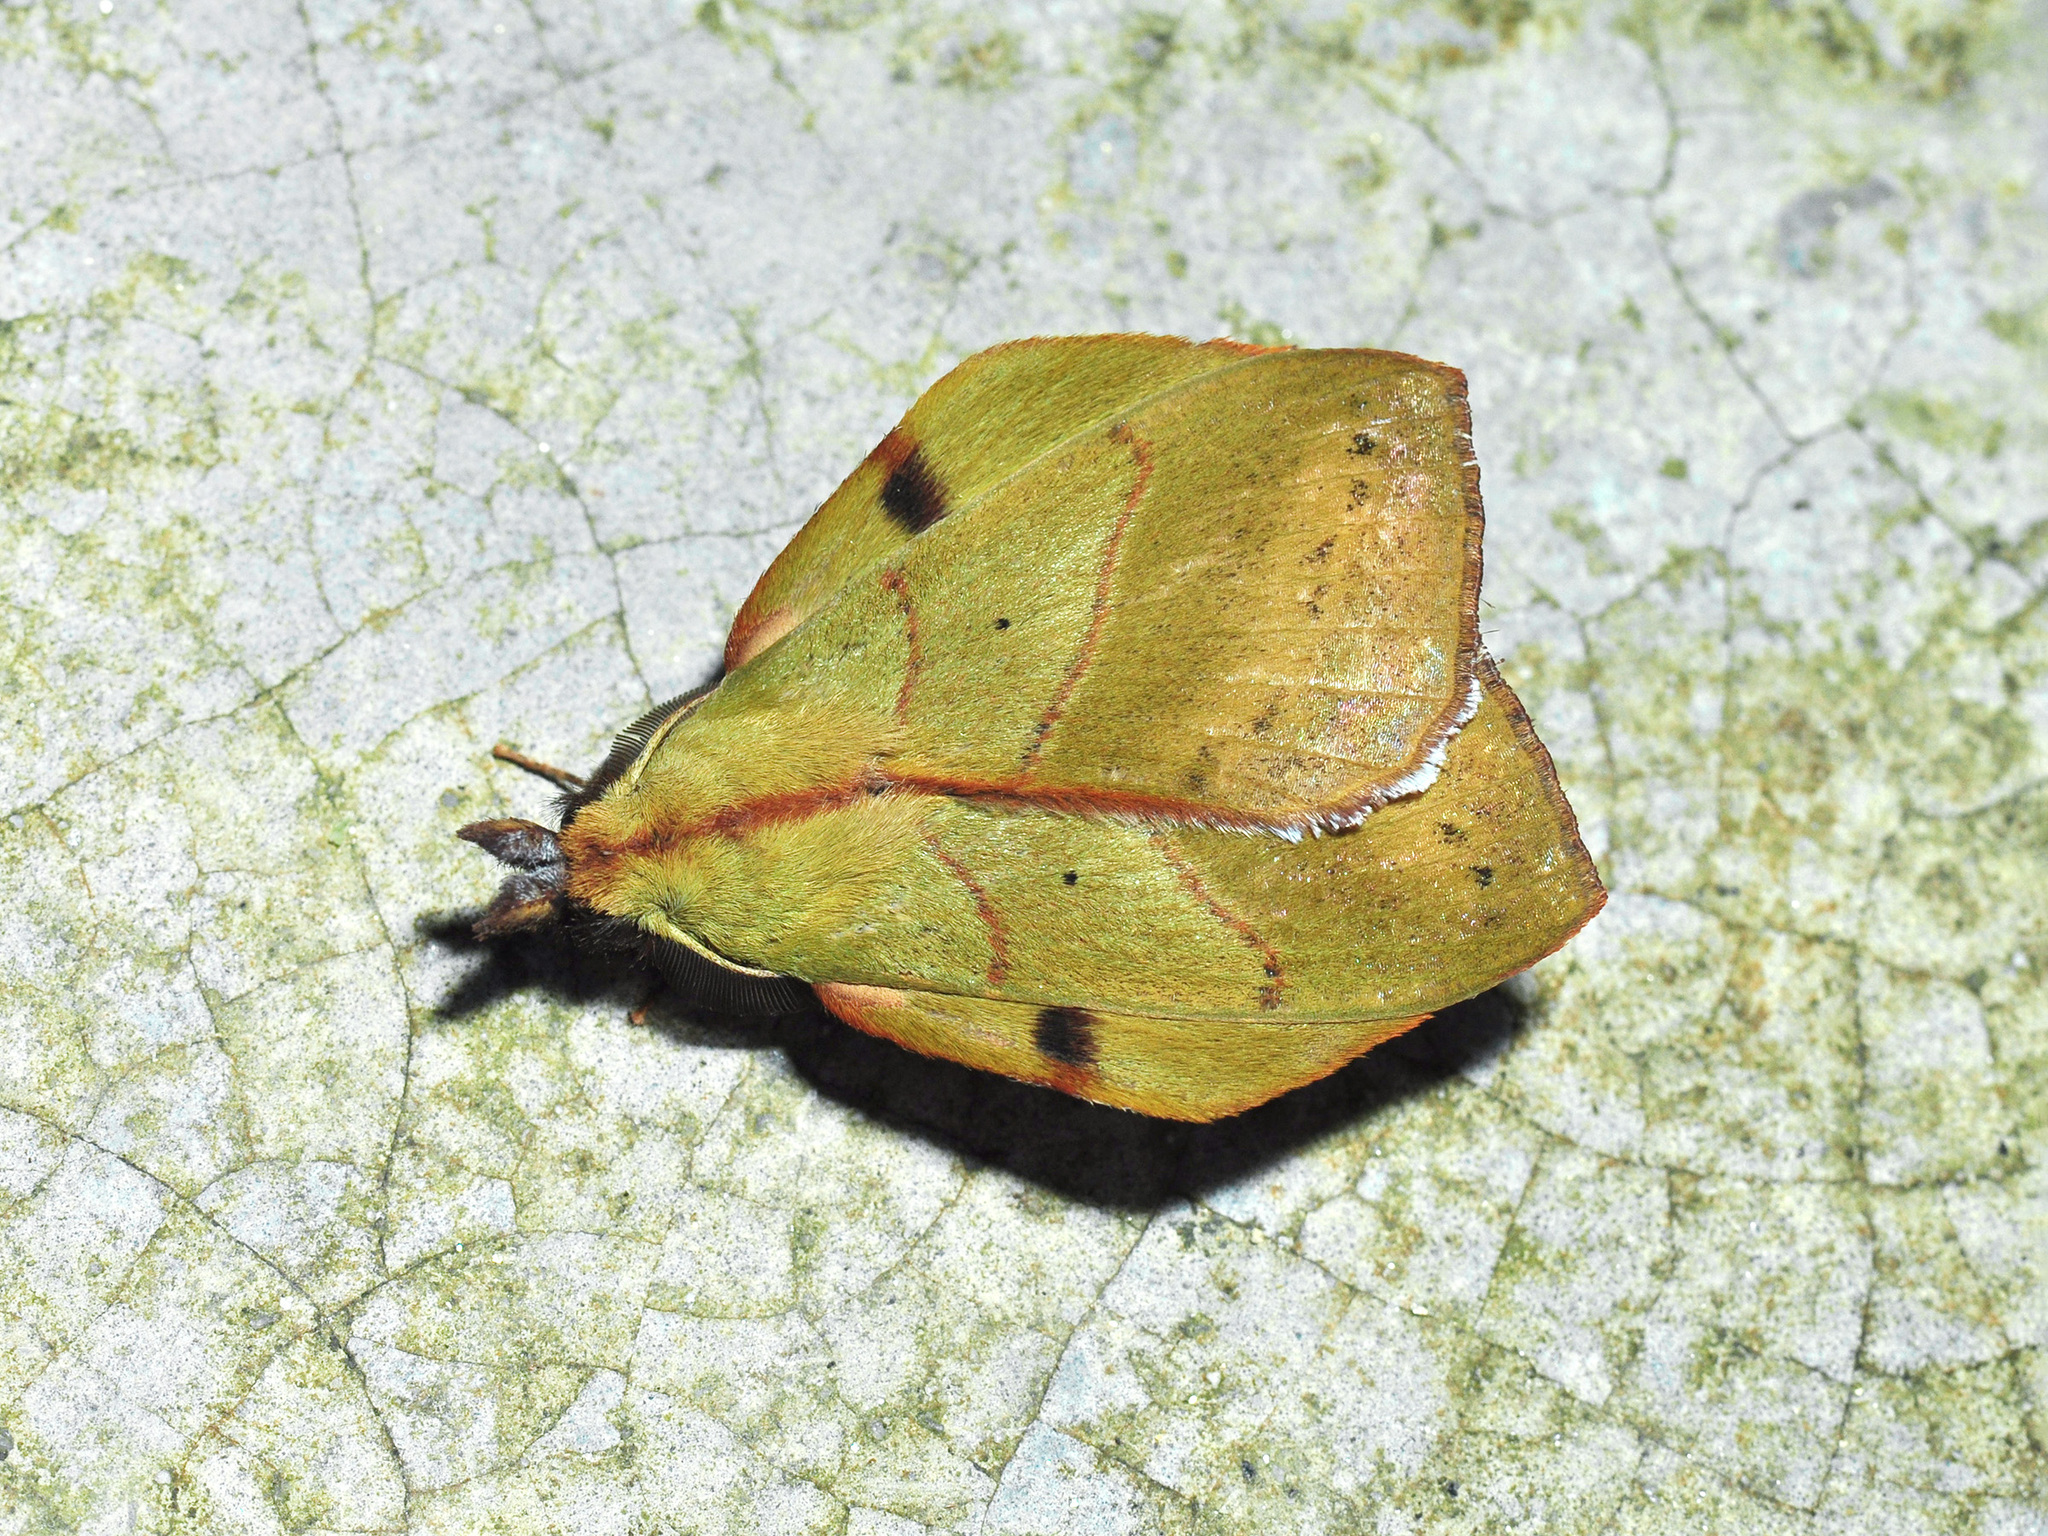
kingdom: Animalia
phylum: Arthropoda
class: Insecta
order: Lepidoptera
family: Lasiocampidae
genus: Radhica
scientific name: Radhica elisabethae
